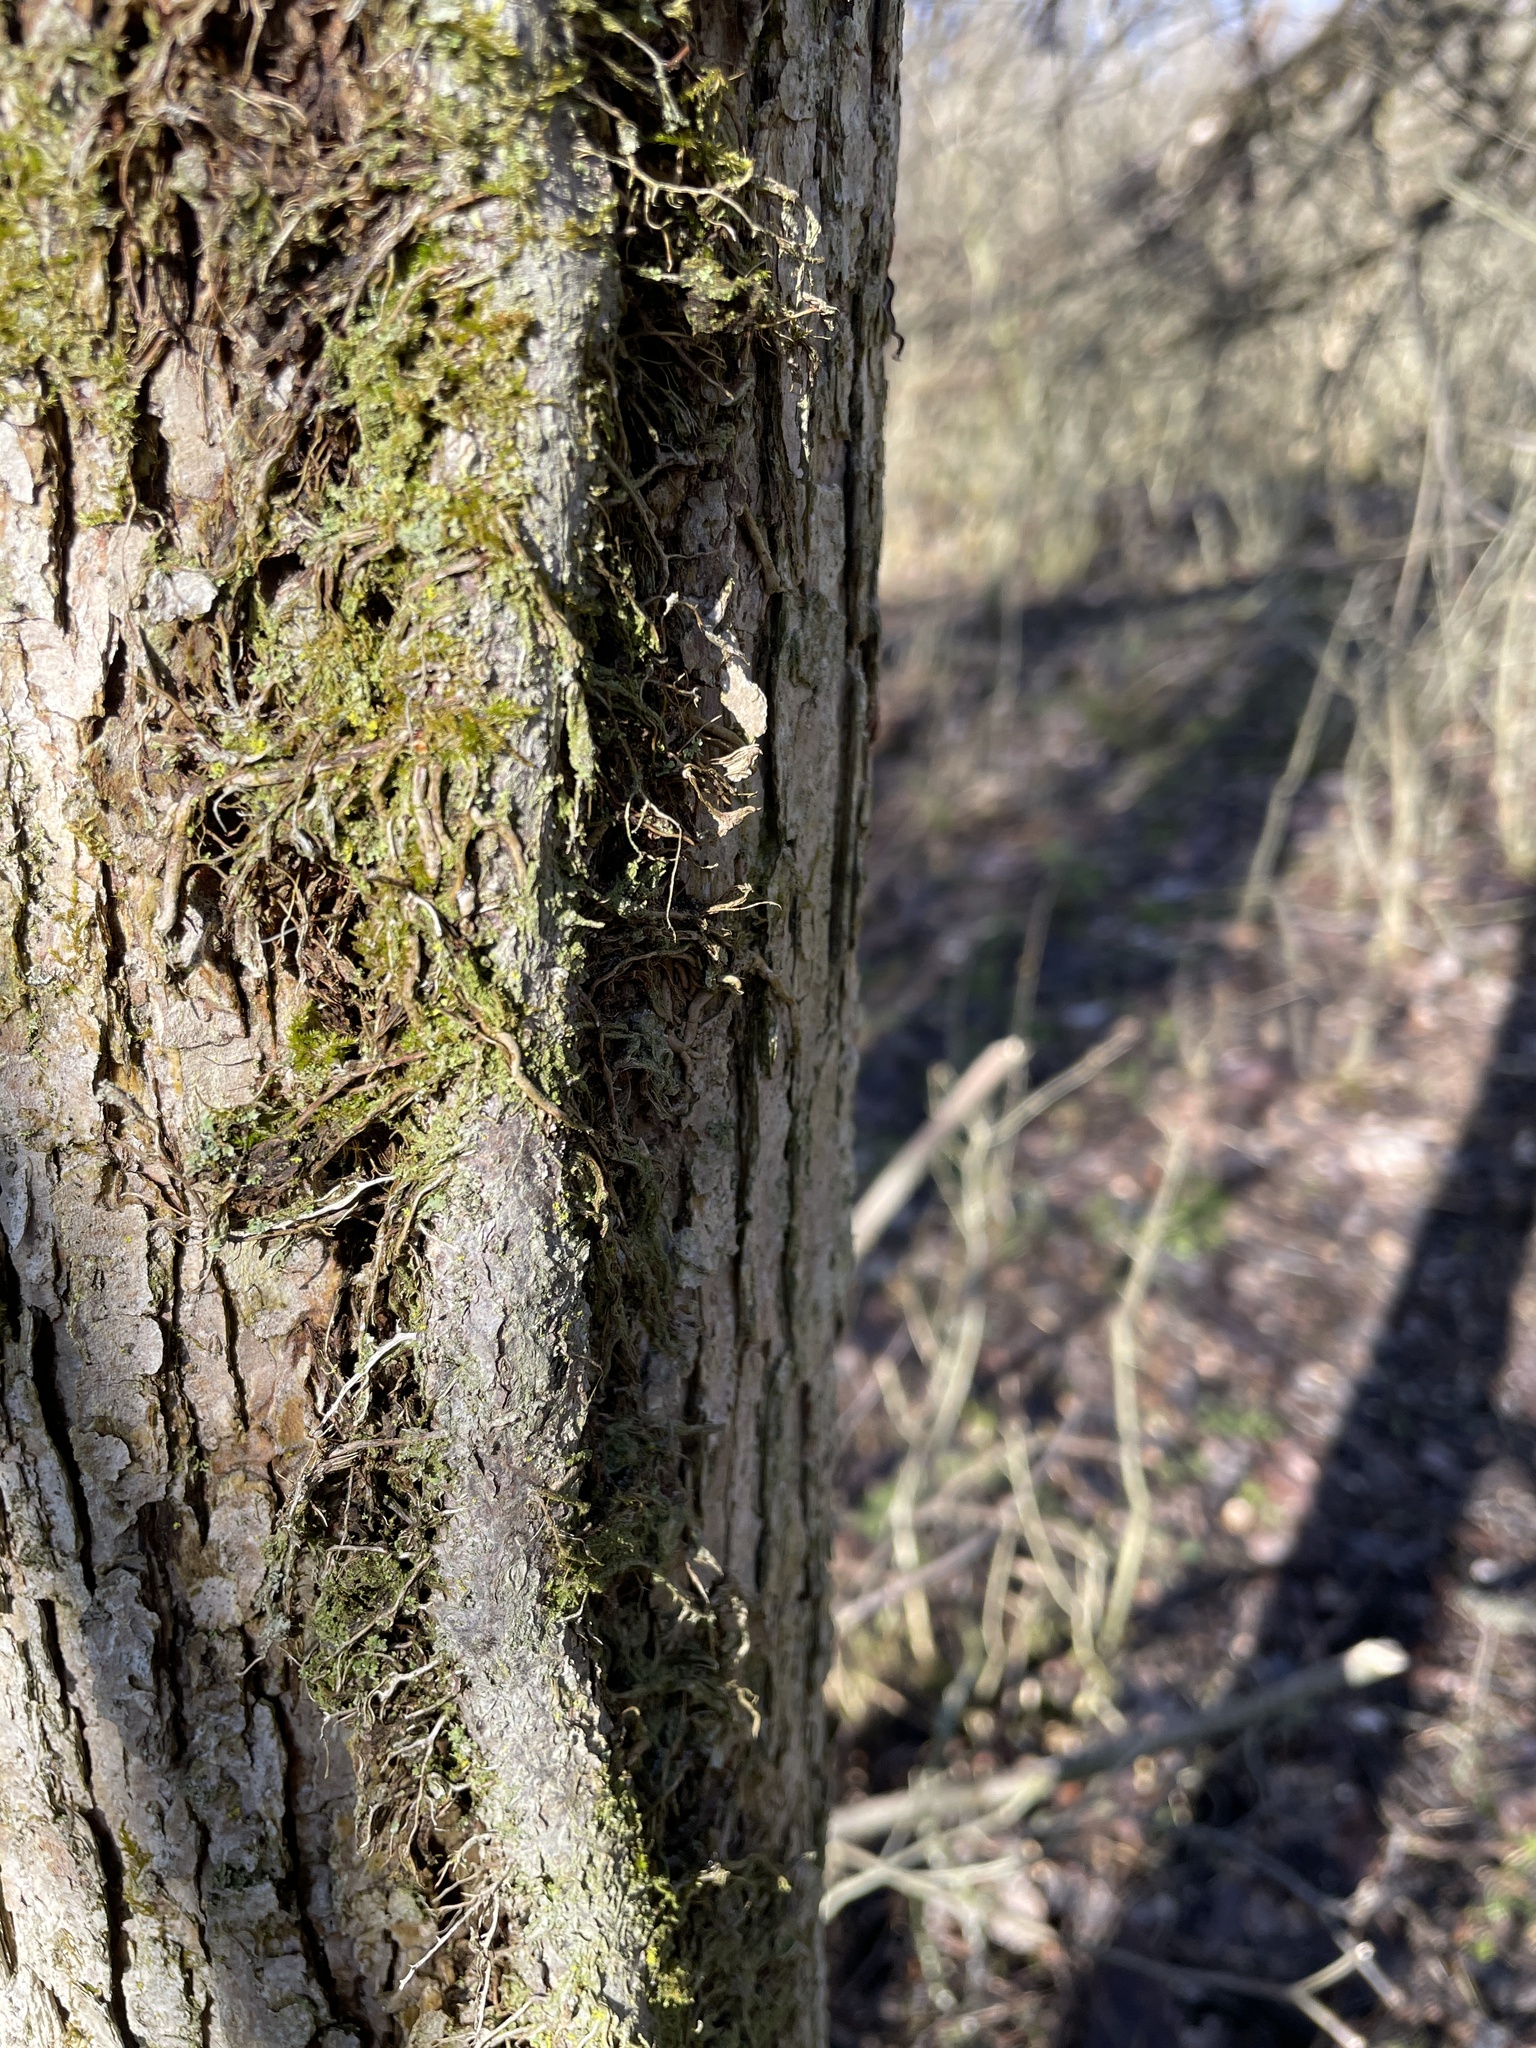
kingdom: Plantae
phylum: Tracheophyta
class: Magnoliopsida
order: Sapindales
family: Anacardiaceae
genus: Toxicodendron
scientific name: Toxicodendron radicans
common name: Poison ivy
